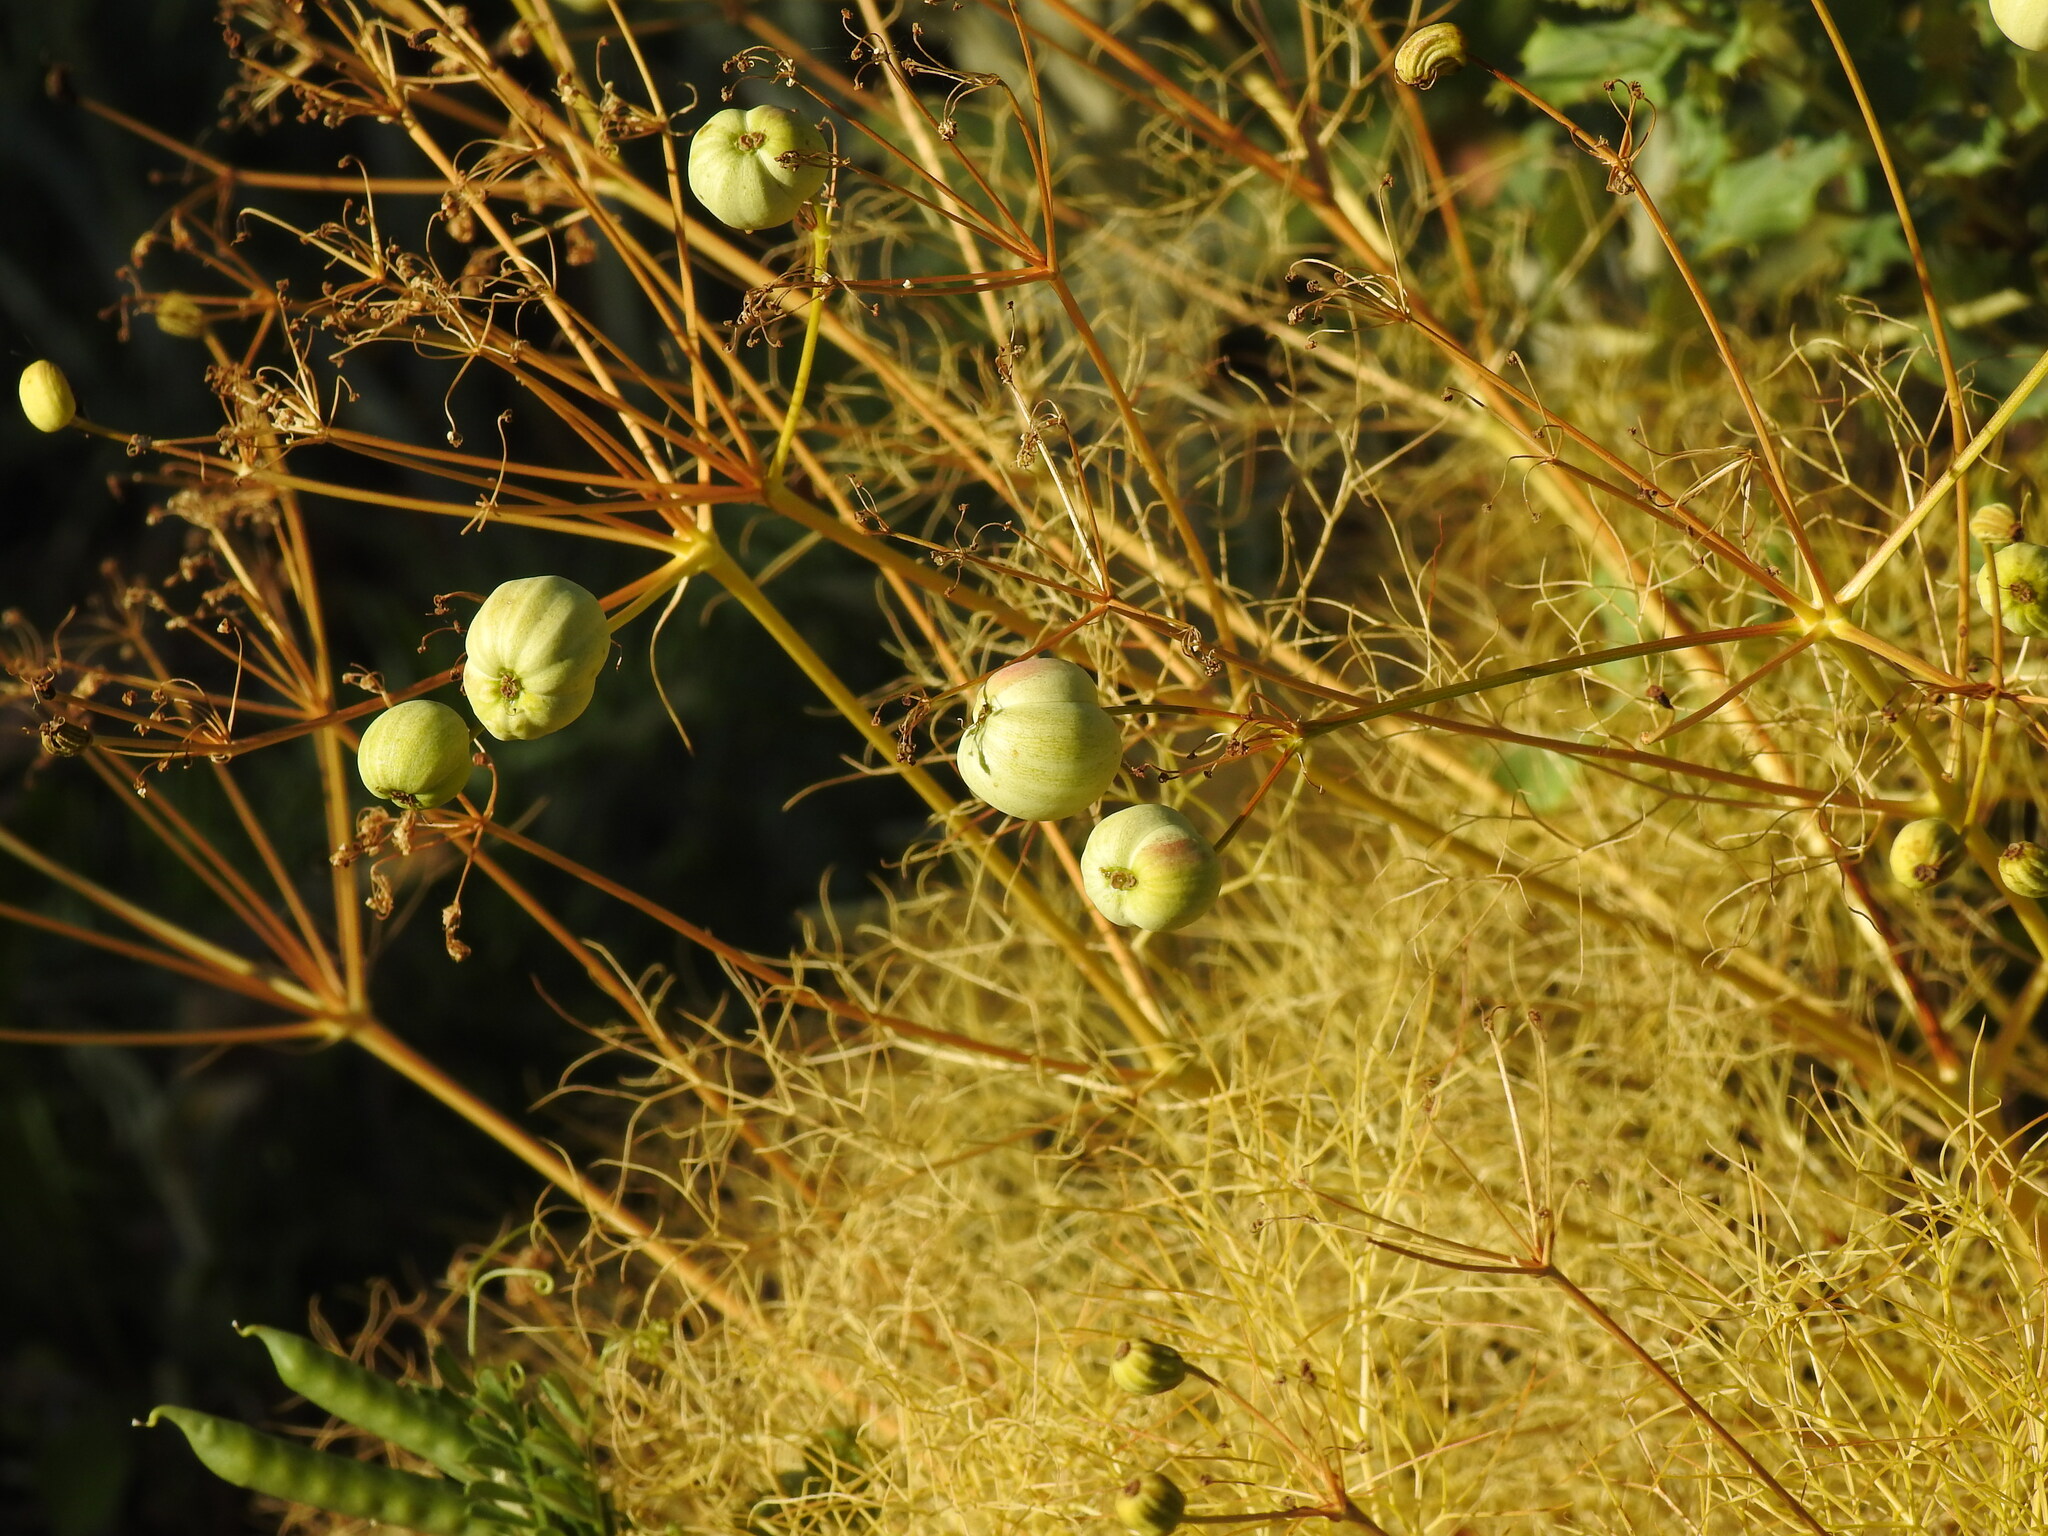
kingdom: Plantae
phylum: Tracheophyta
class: Magnoliopsida
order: Apiales
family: Apiaceae
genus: Prangos
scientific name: Prangos trifida
